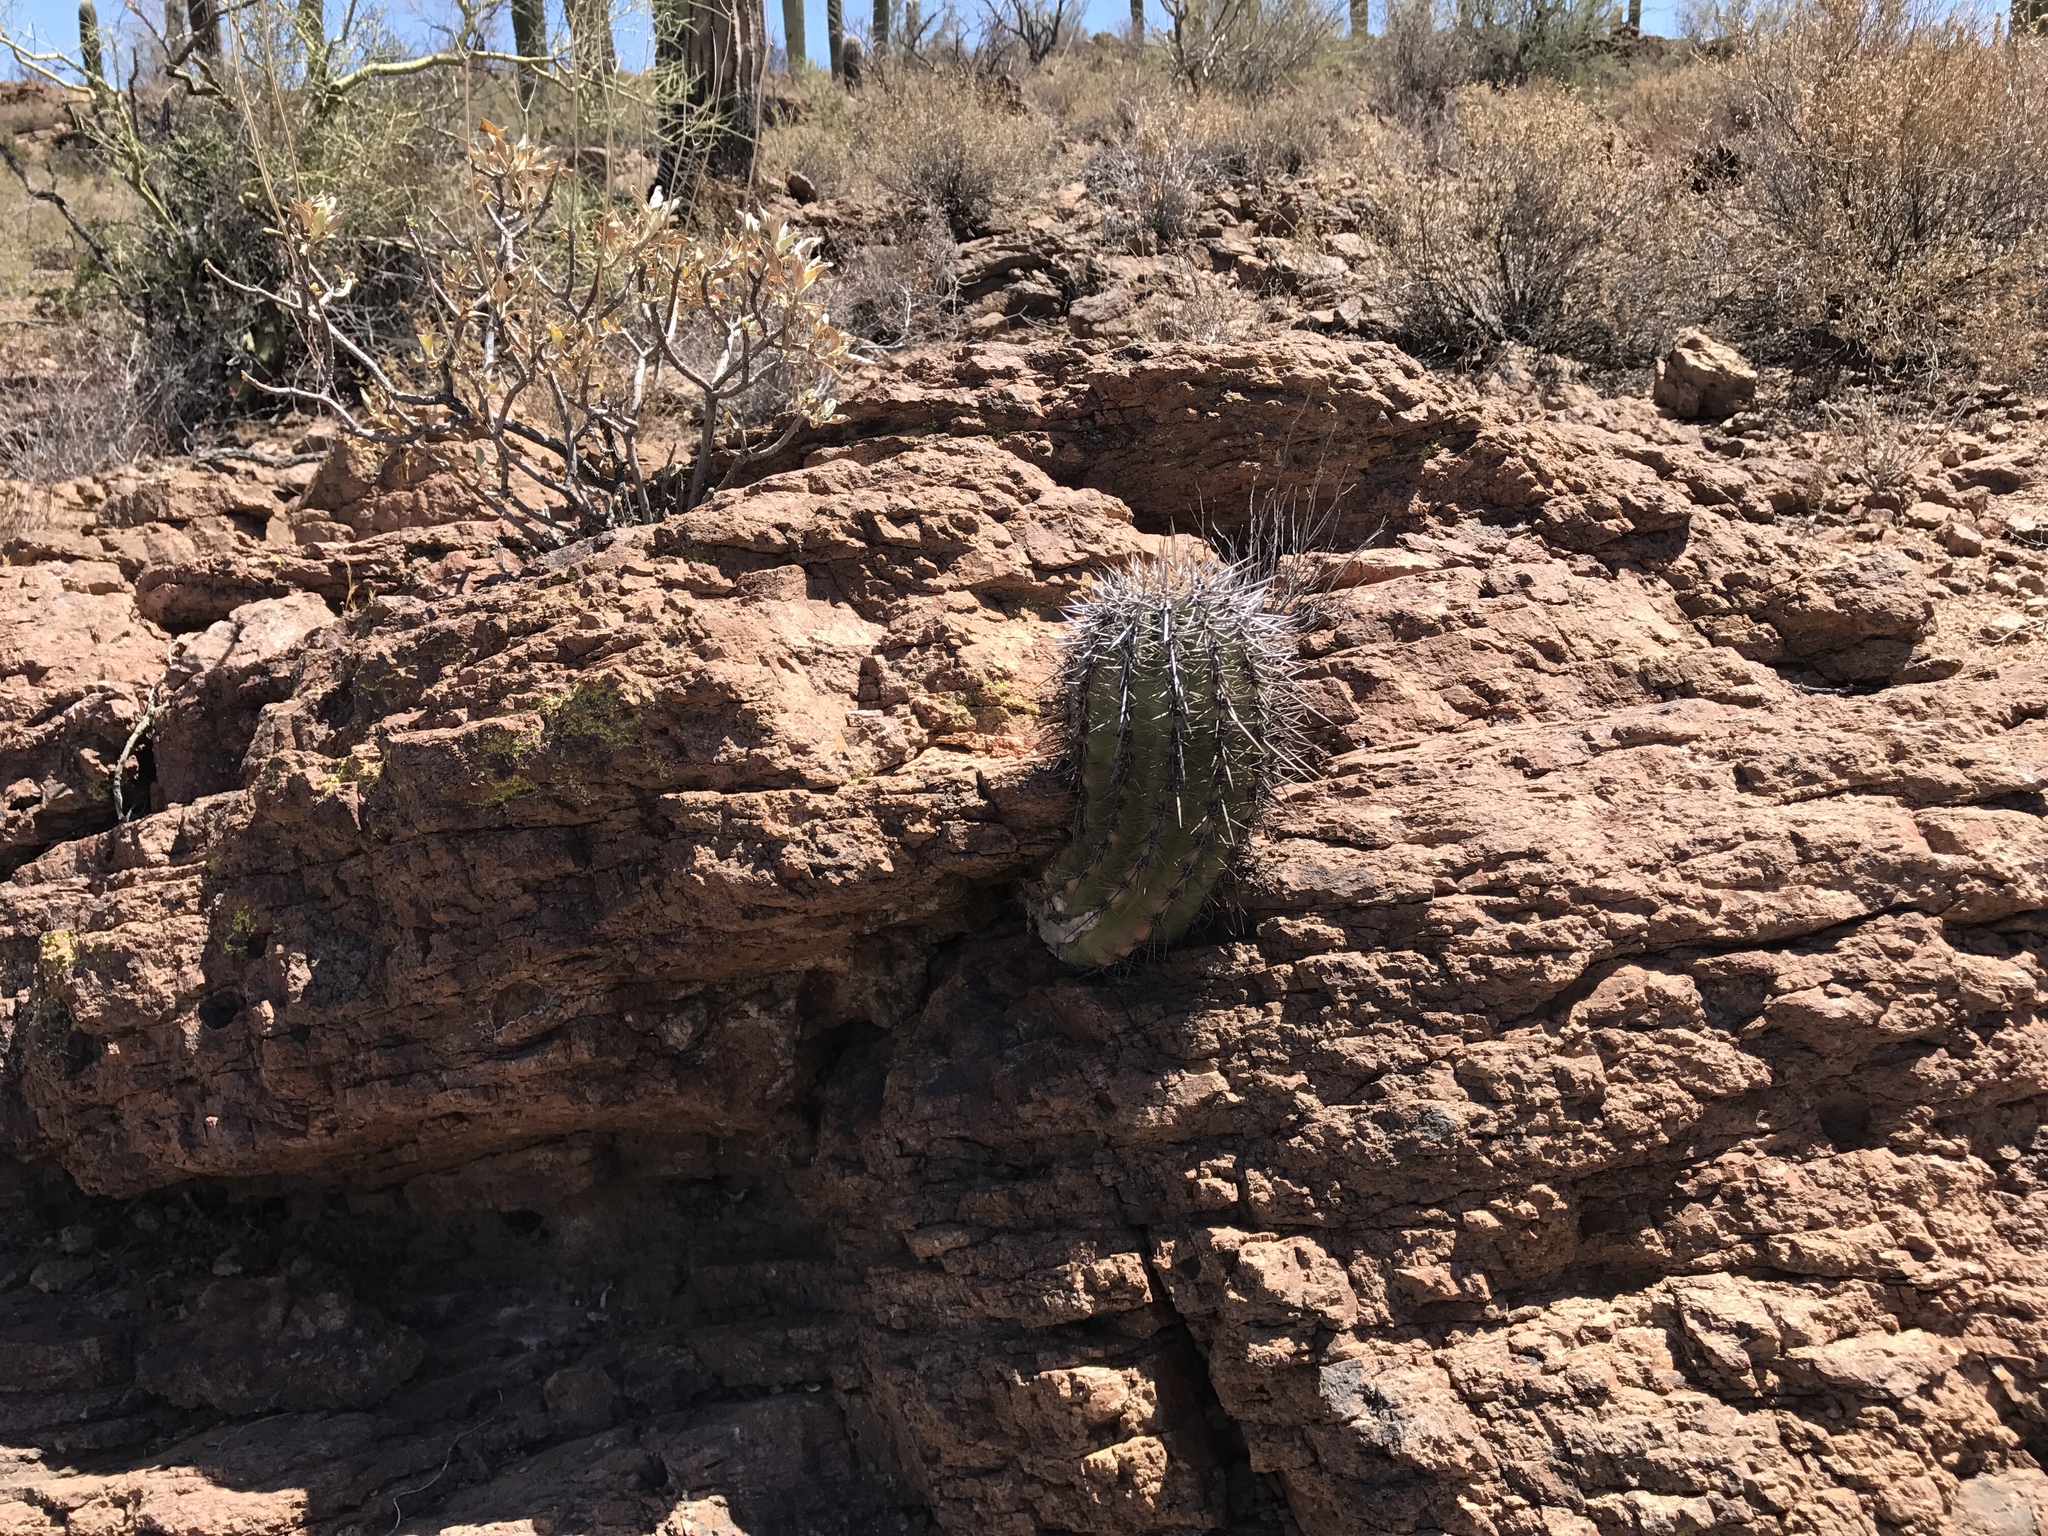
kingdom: Plantae
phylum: Tracheophyta
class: Magnoliopsida
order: Caryophyllales
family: Cactaceae
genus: Carnegiea
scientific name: Carnegiea gigantea
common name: Saguaro
